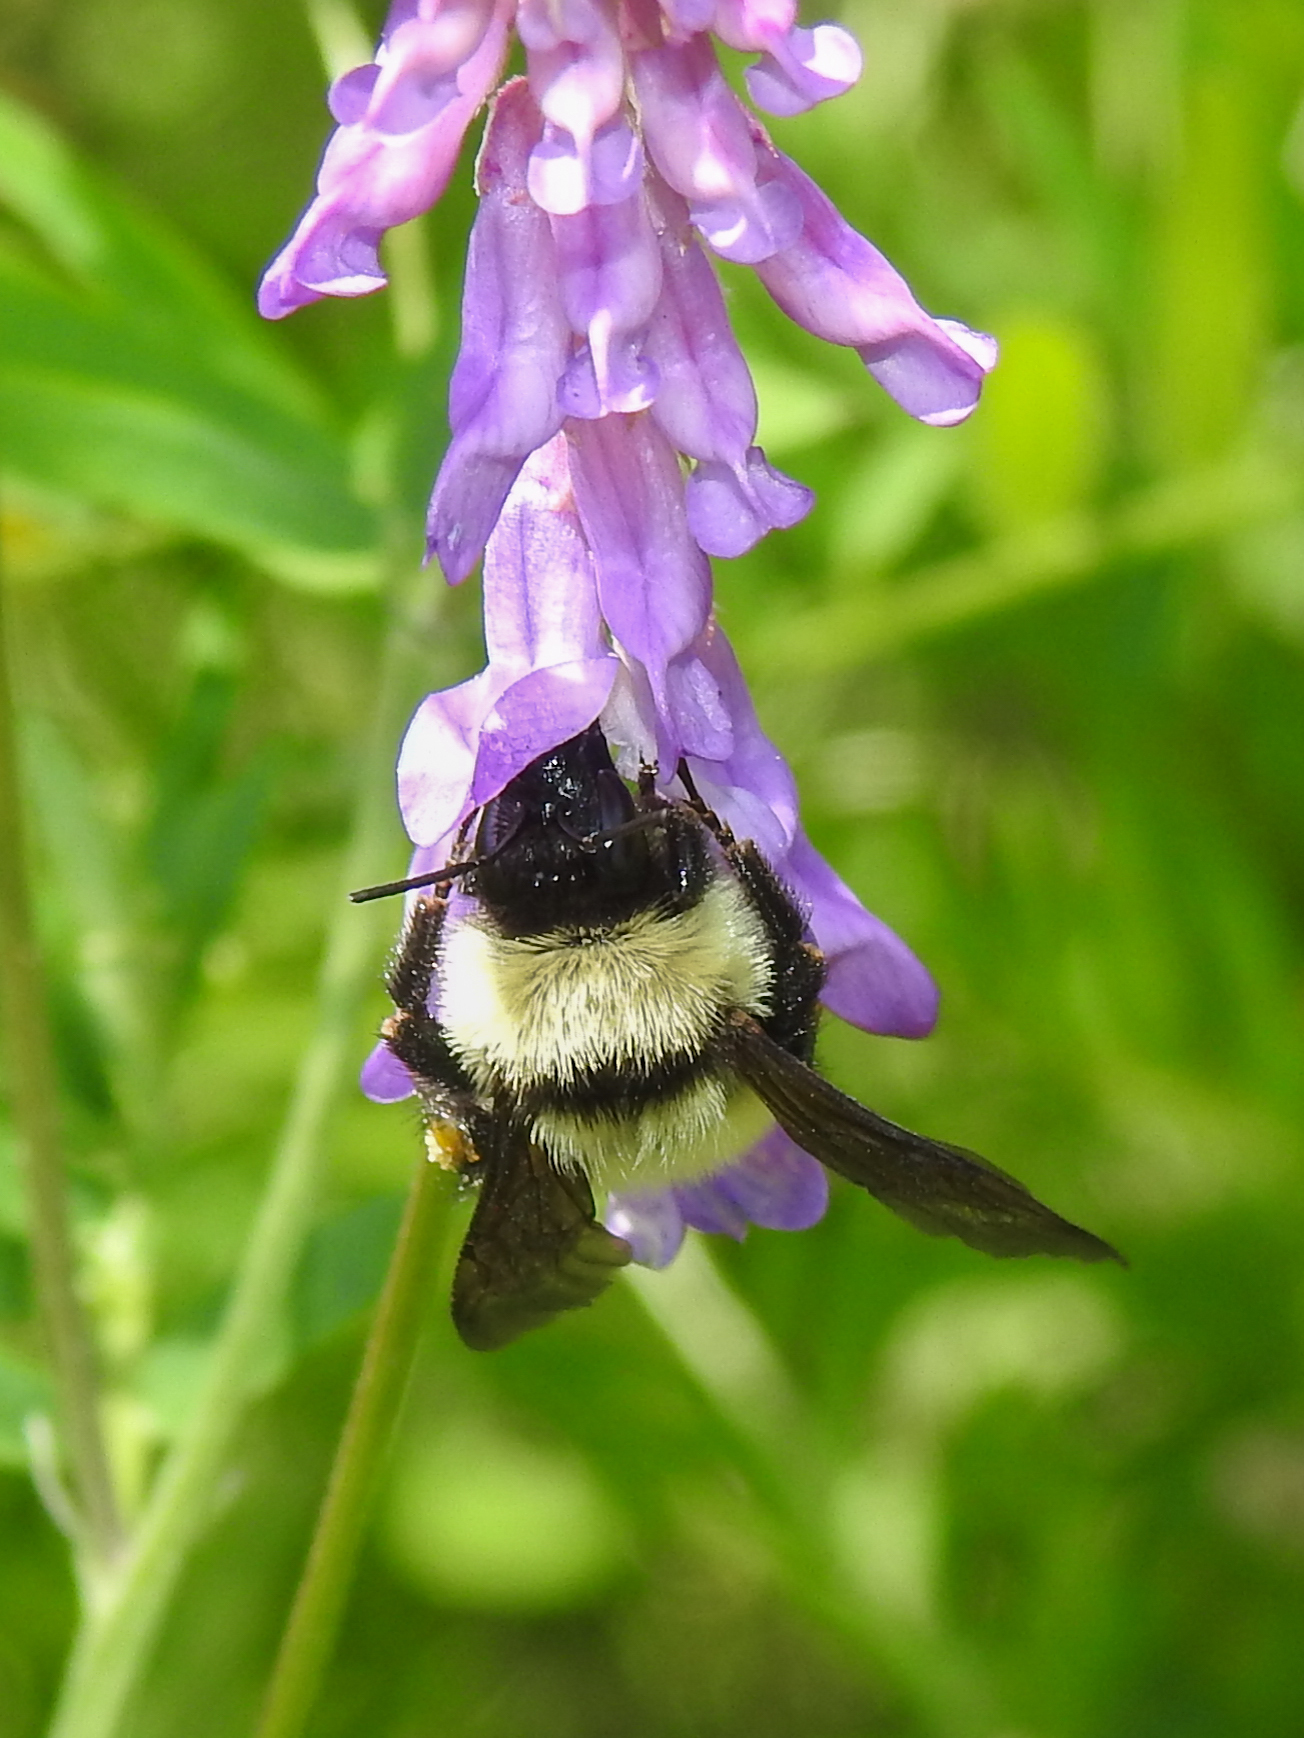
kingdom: Animalia
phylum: Arthropoda
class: Insecta
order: Hymenoptera
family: Apidae
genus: Bombus
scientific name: Bombus fervidus
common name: Yellow bumble bee
